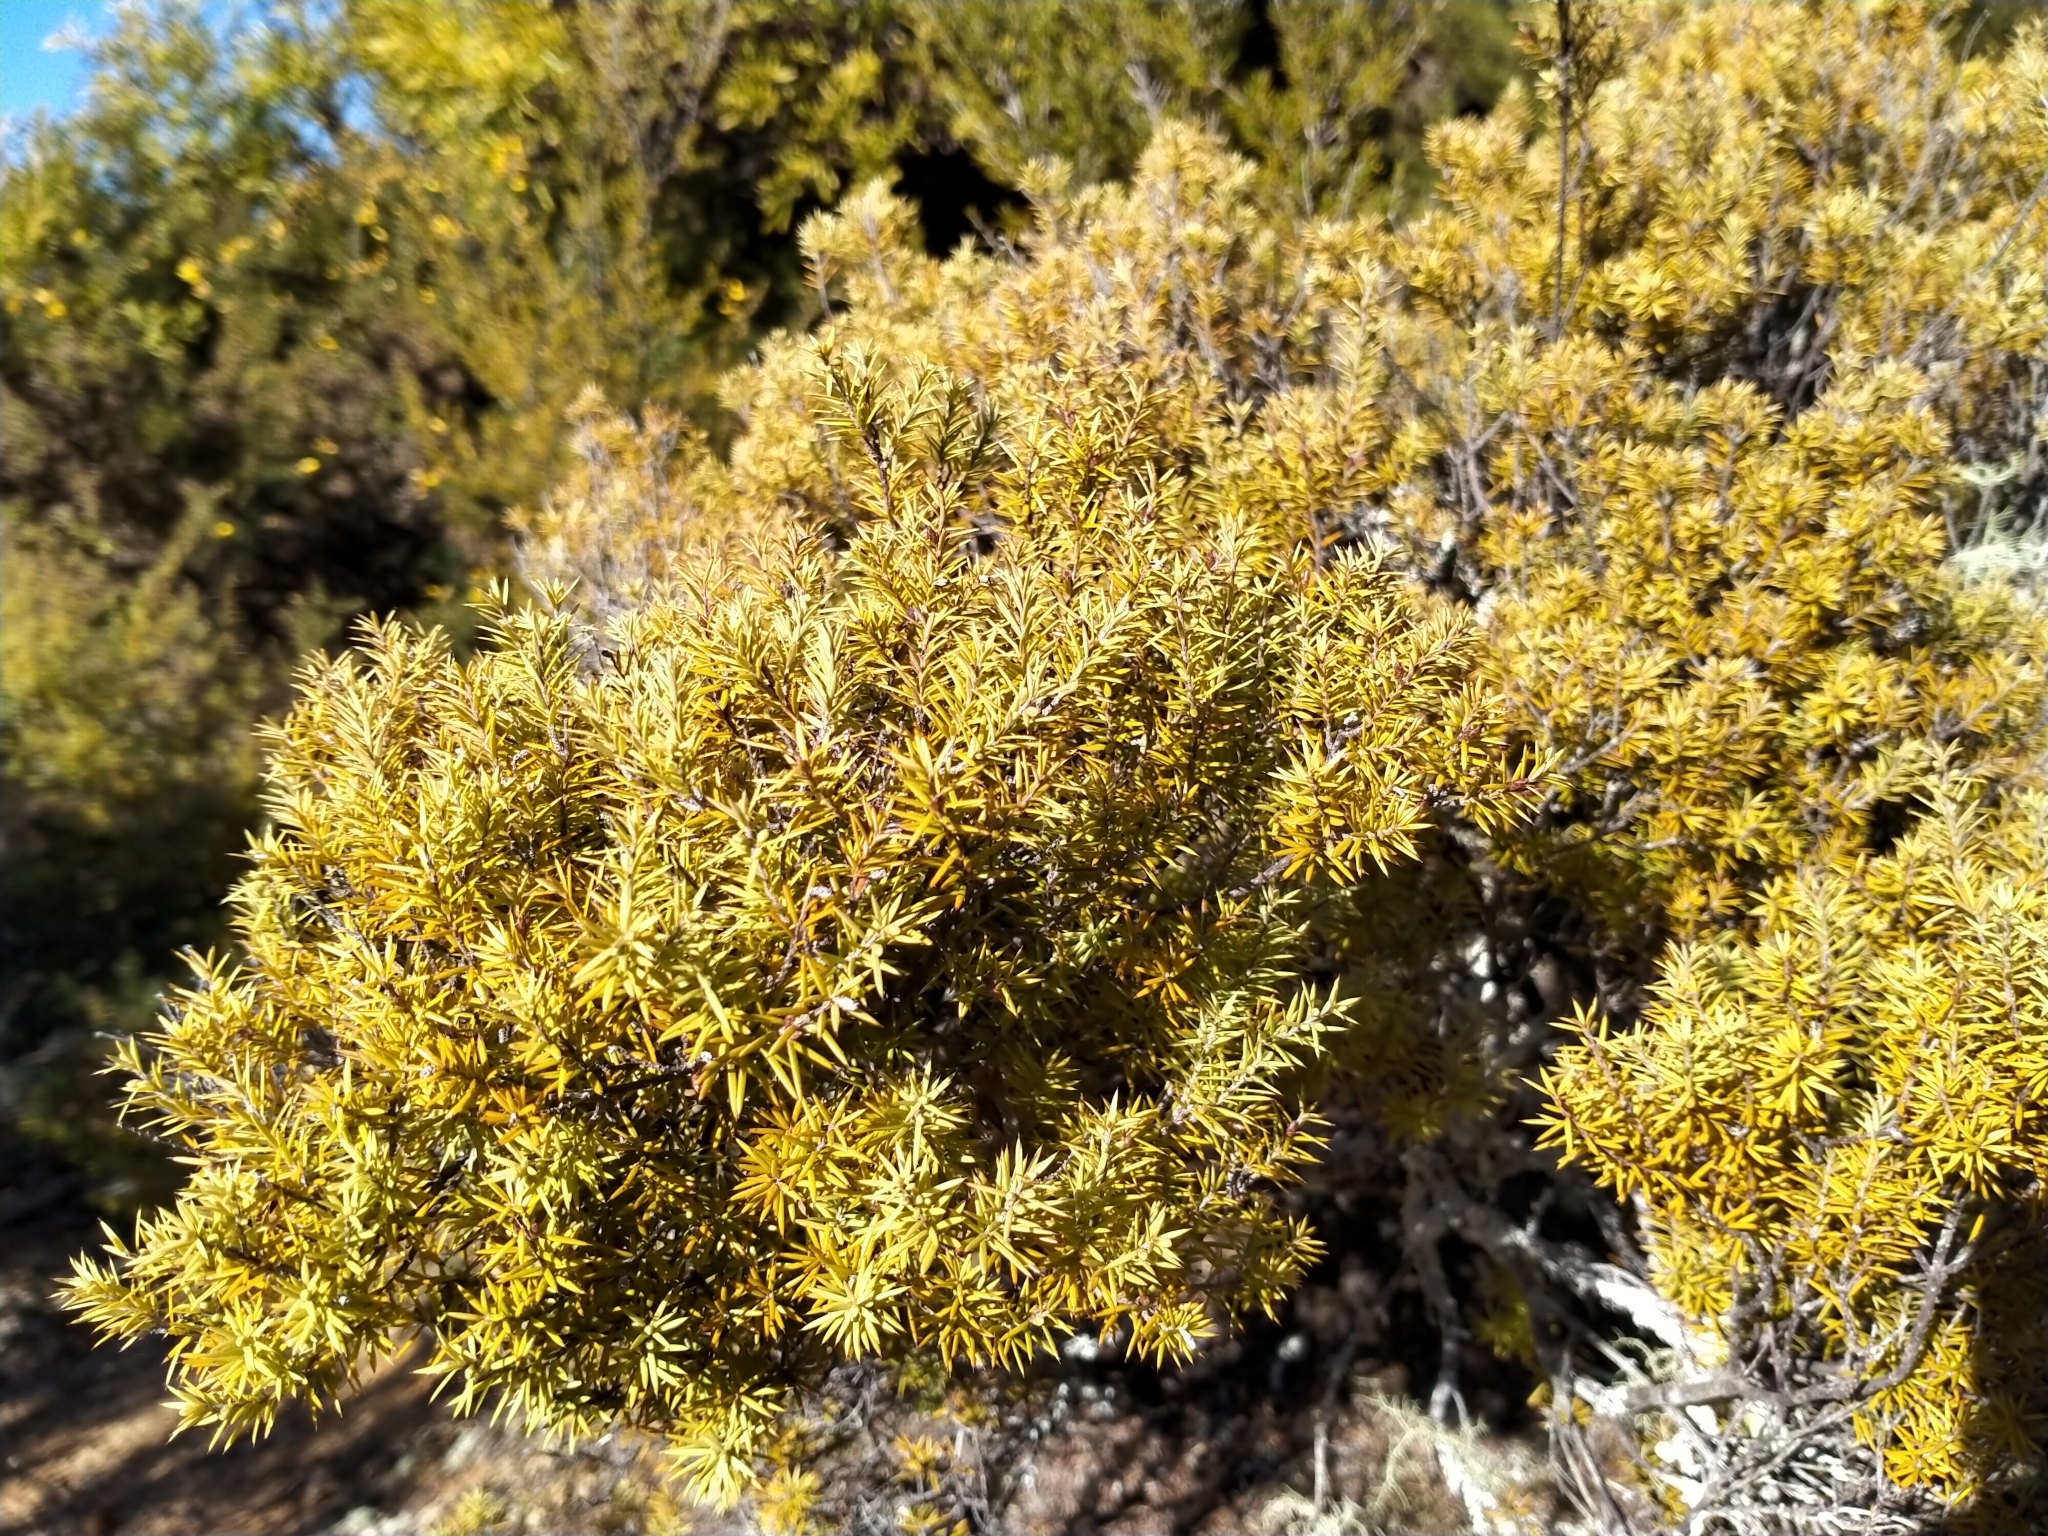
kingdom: Plantae
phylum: Tracheophyta
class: Magnoliopsida
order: Ericales
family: Ericaceae
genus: Leptecophylla
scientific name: Leptecophylla juniperina
